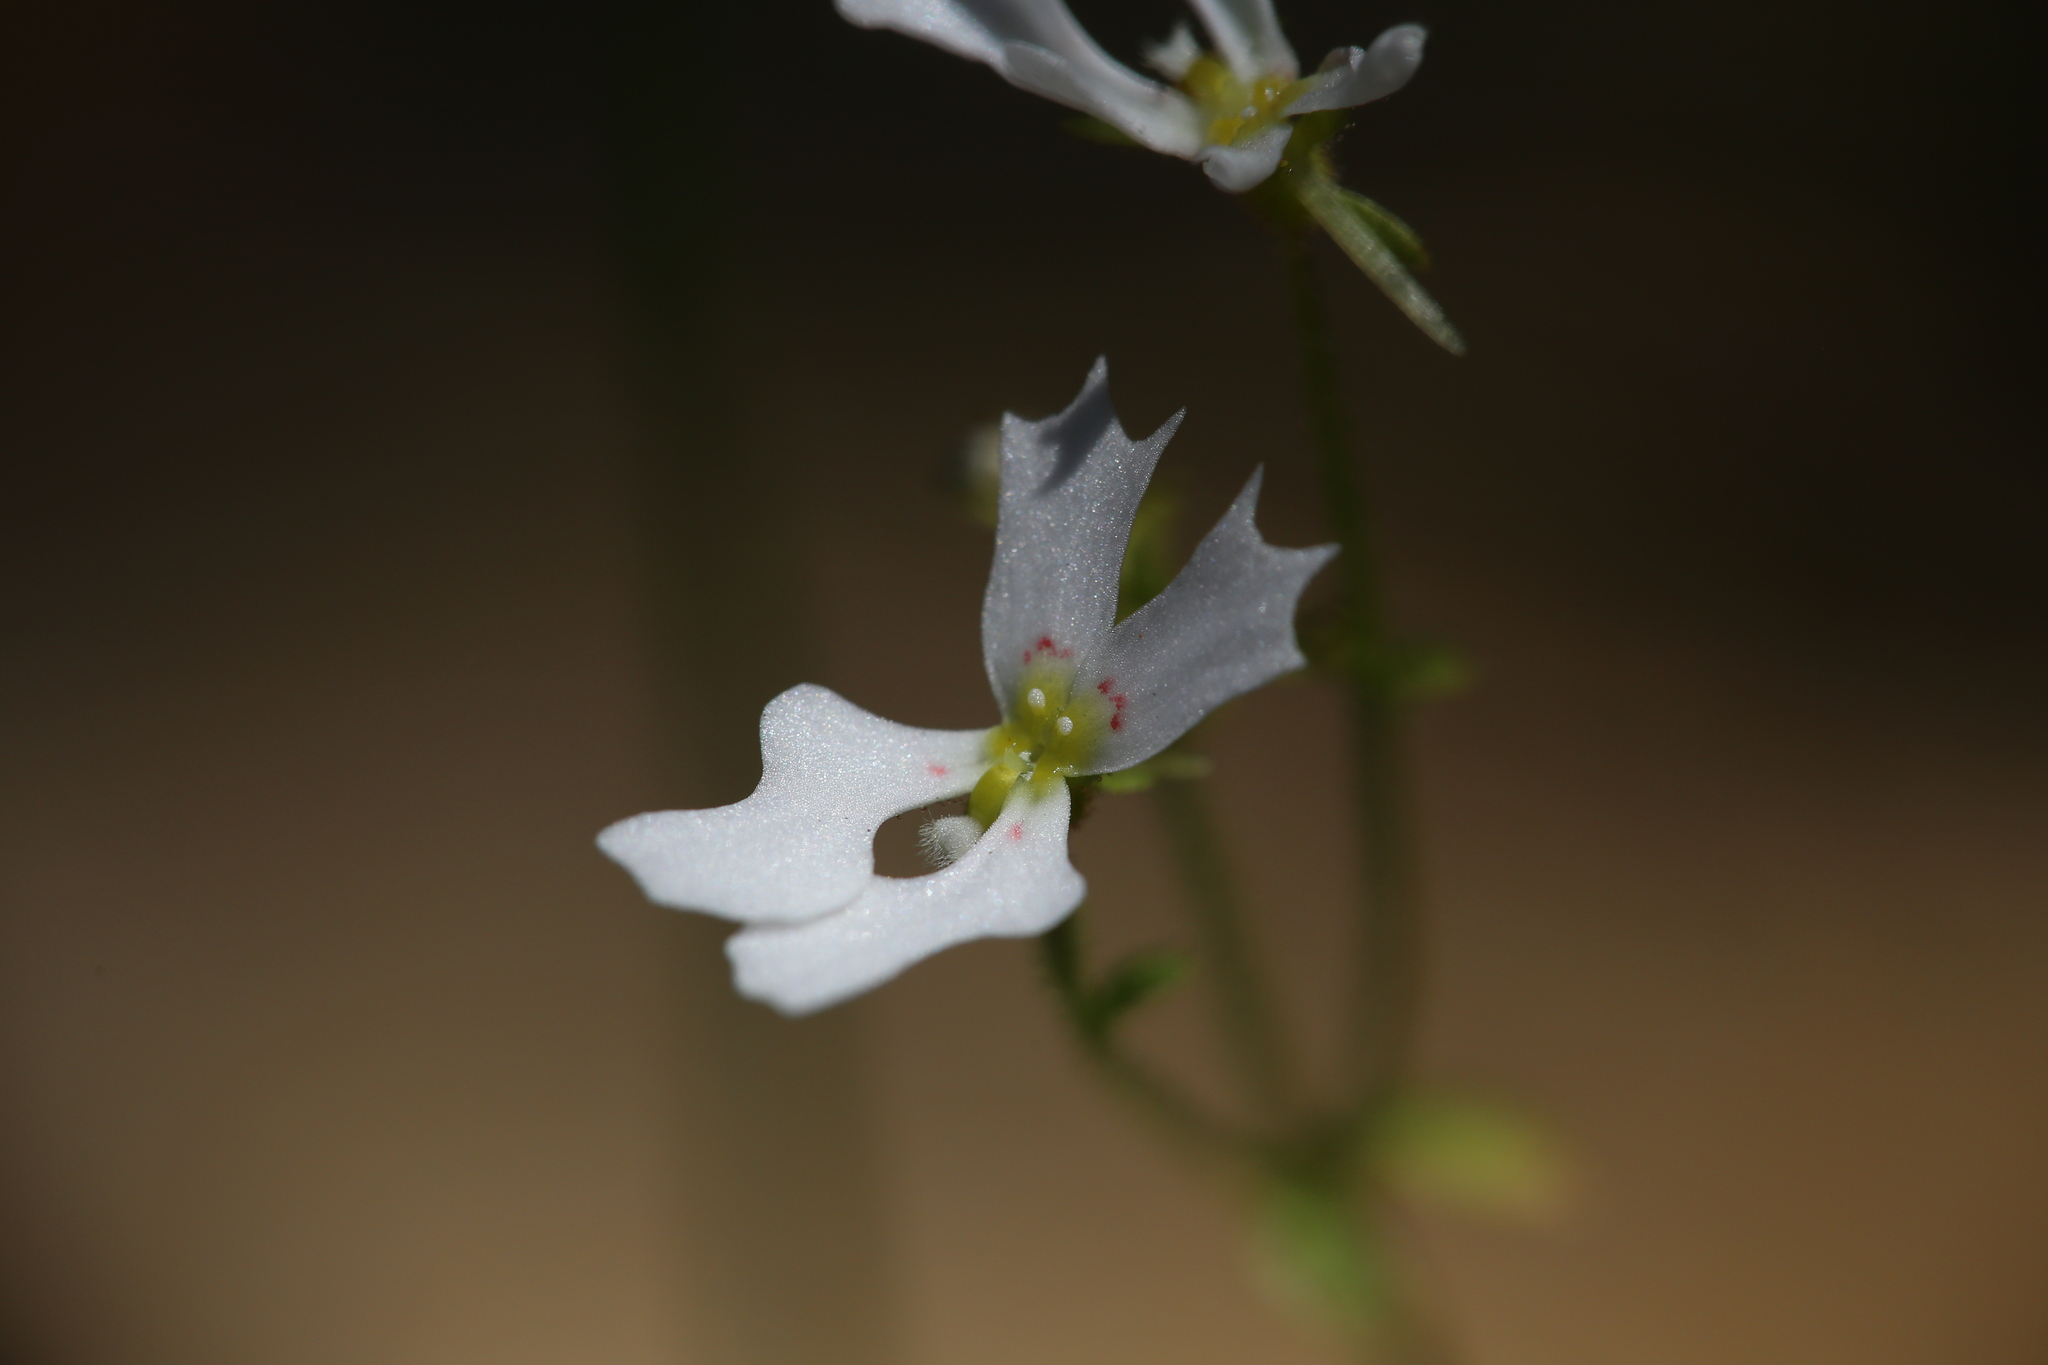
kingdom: Plantae
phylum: Tracheophyta
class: Magnoliopsida
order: Asterales
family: Stylidiaceae
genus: Stylidium
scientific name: Stylidium androsaceum
